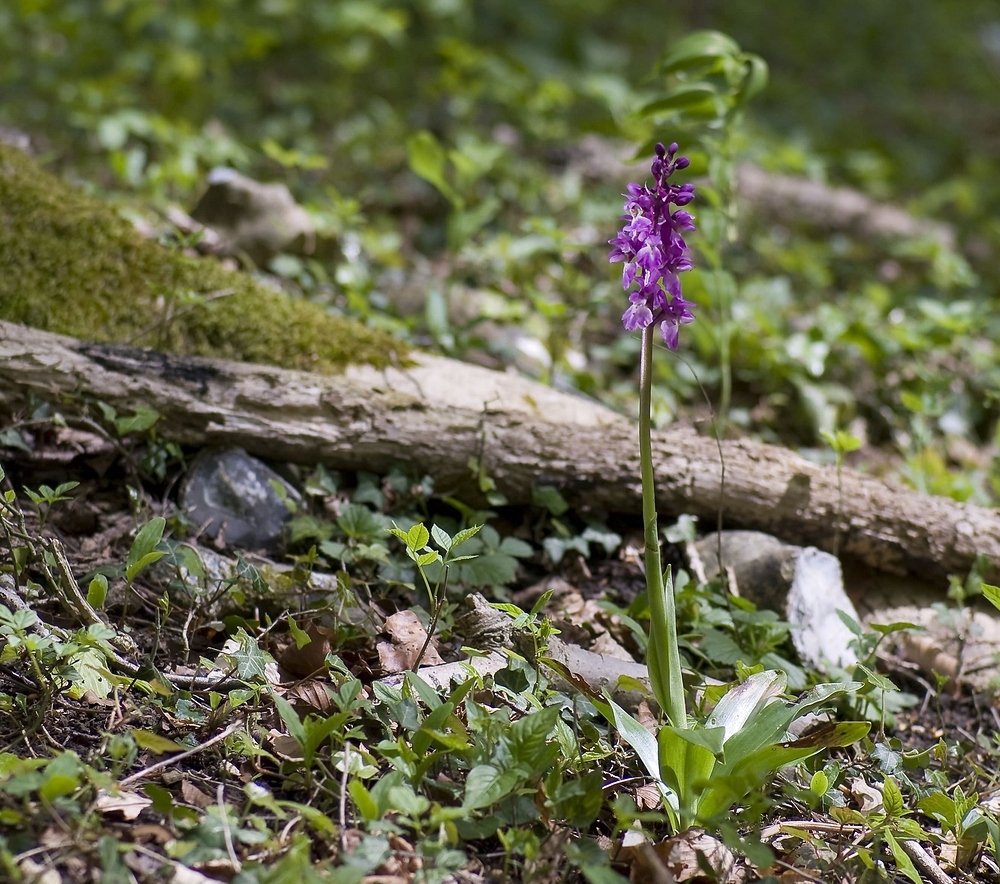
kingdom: Plantae
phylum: Tracheophyta
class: Liliopsida
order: Asparagales
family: Orchidaceae
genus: Orchis
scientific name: Orchis mascula
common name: Early-purple orchid
